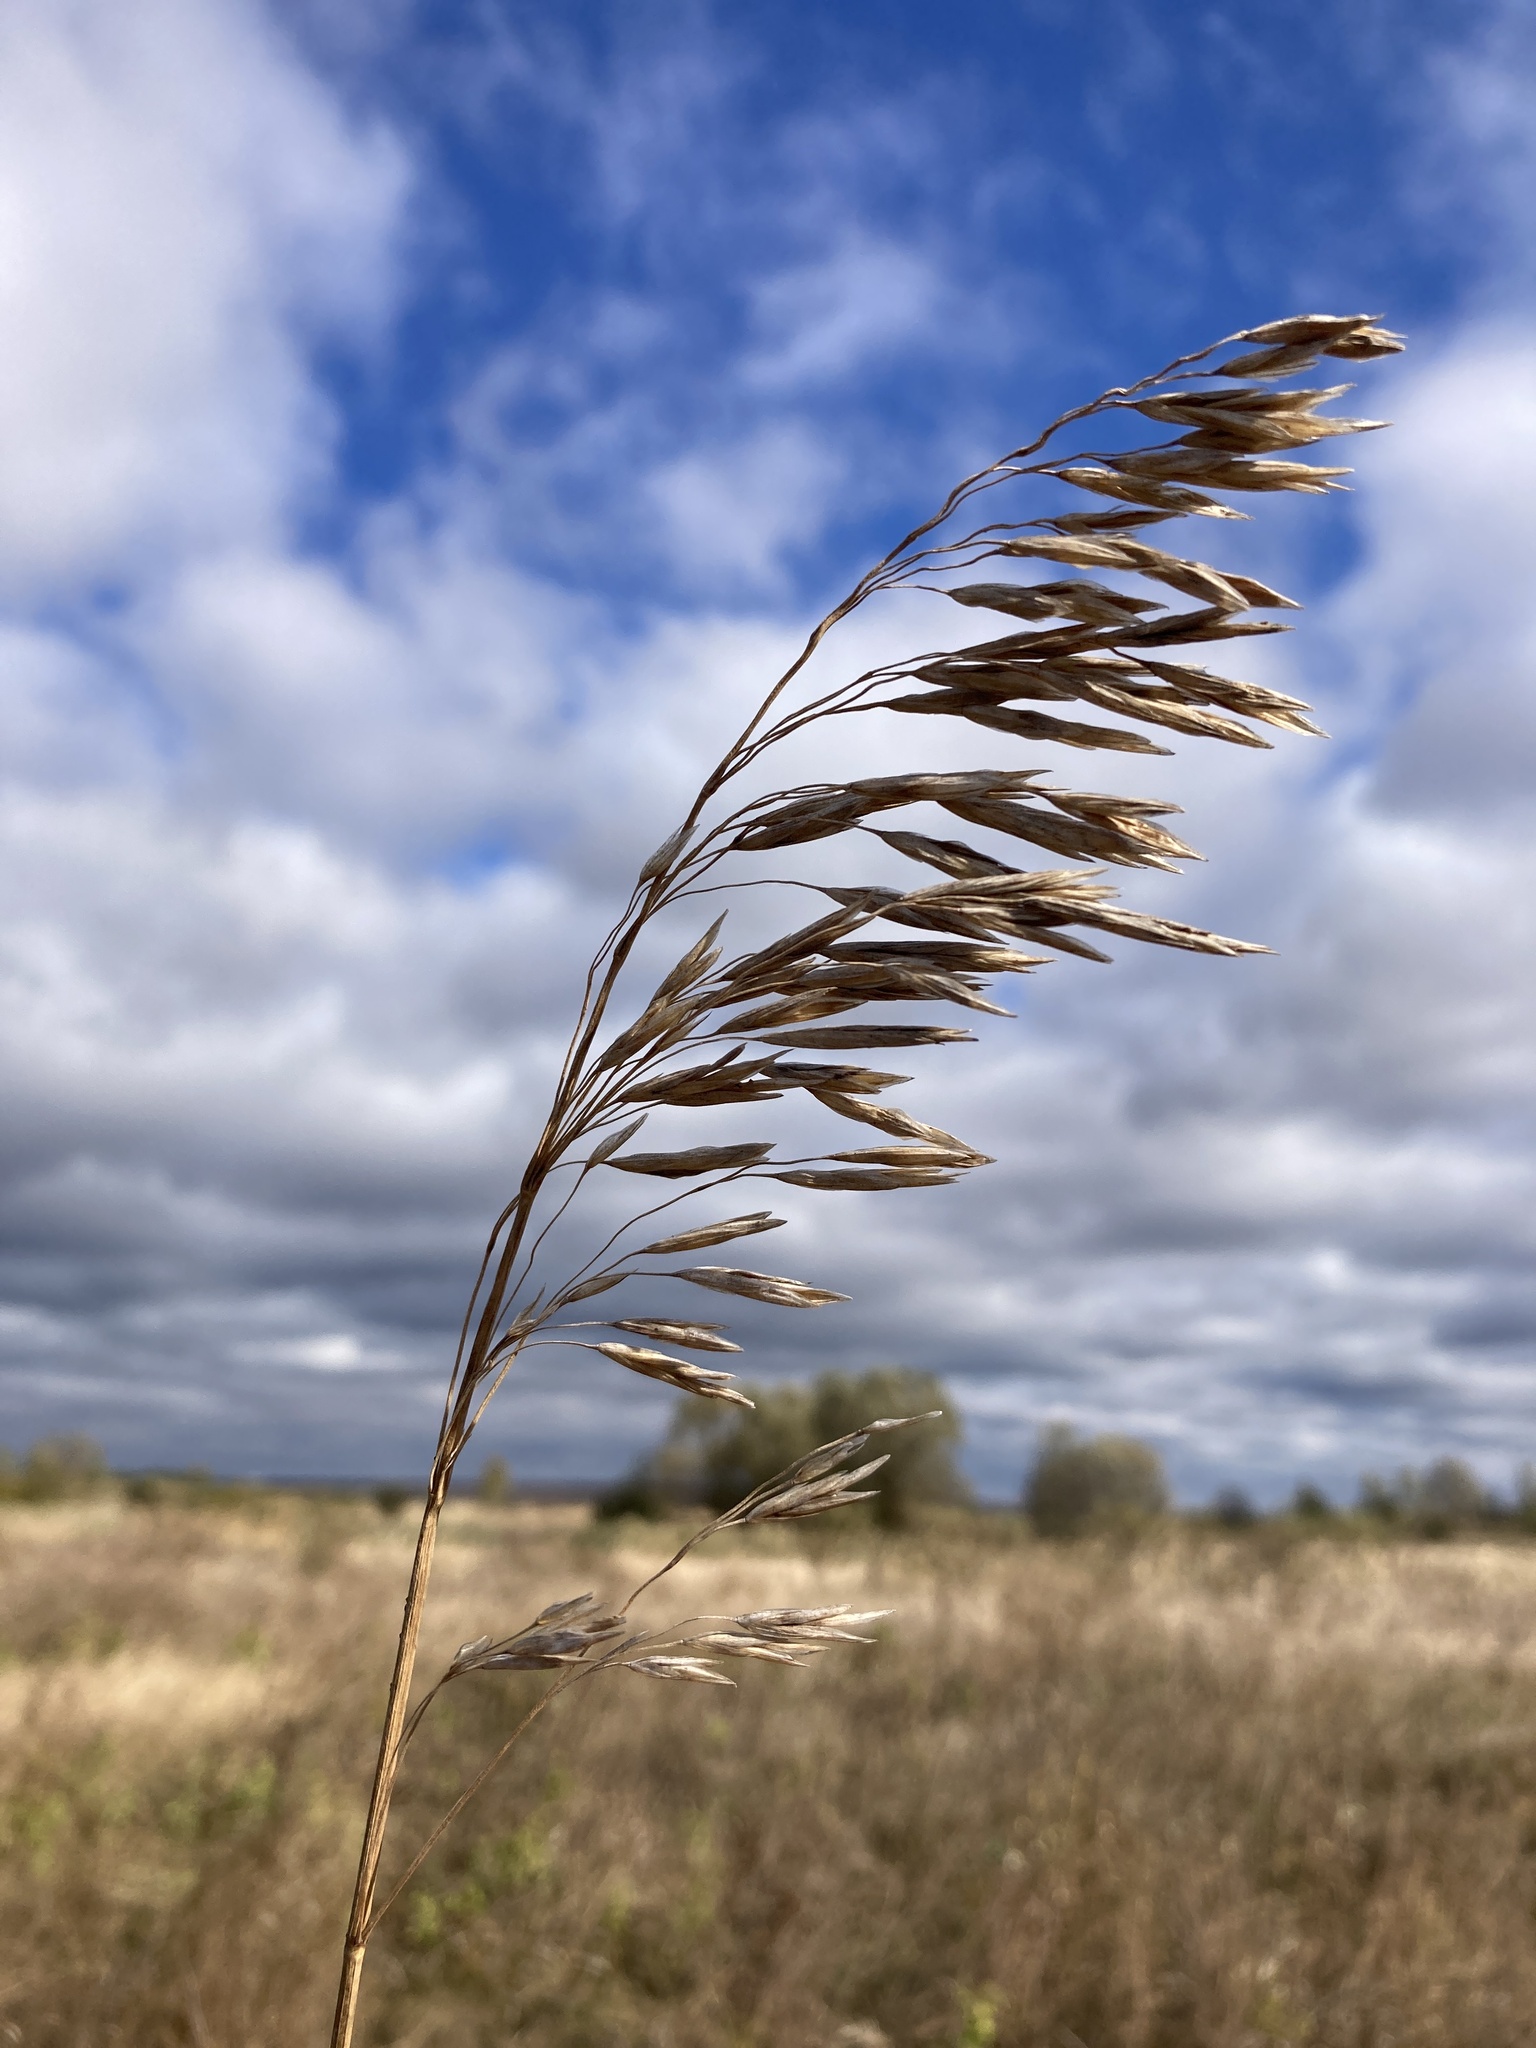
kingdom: Plantae
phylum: Tracheophyta
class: Liliopsida
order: Poales
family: Poaceae
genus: Bromus
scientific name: Bromus inermis
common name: Smooth brome
